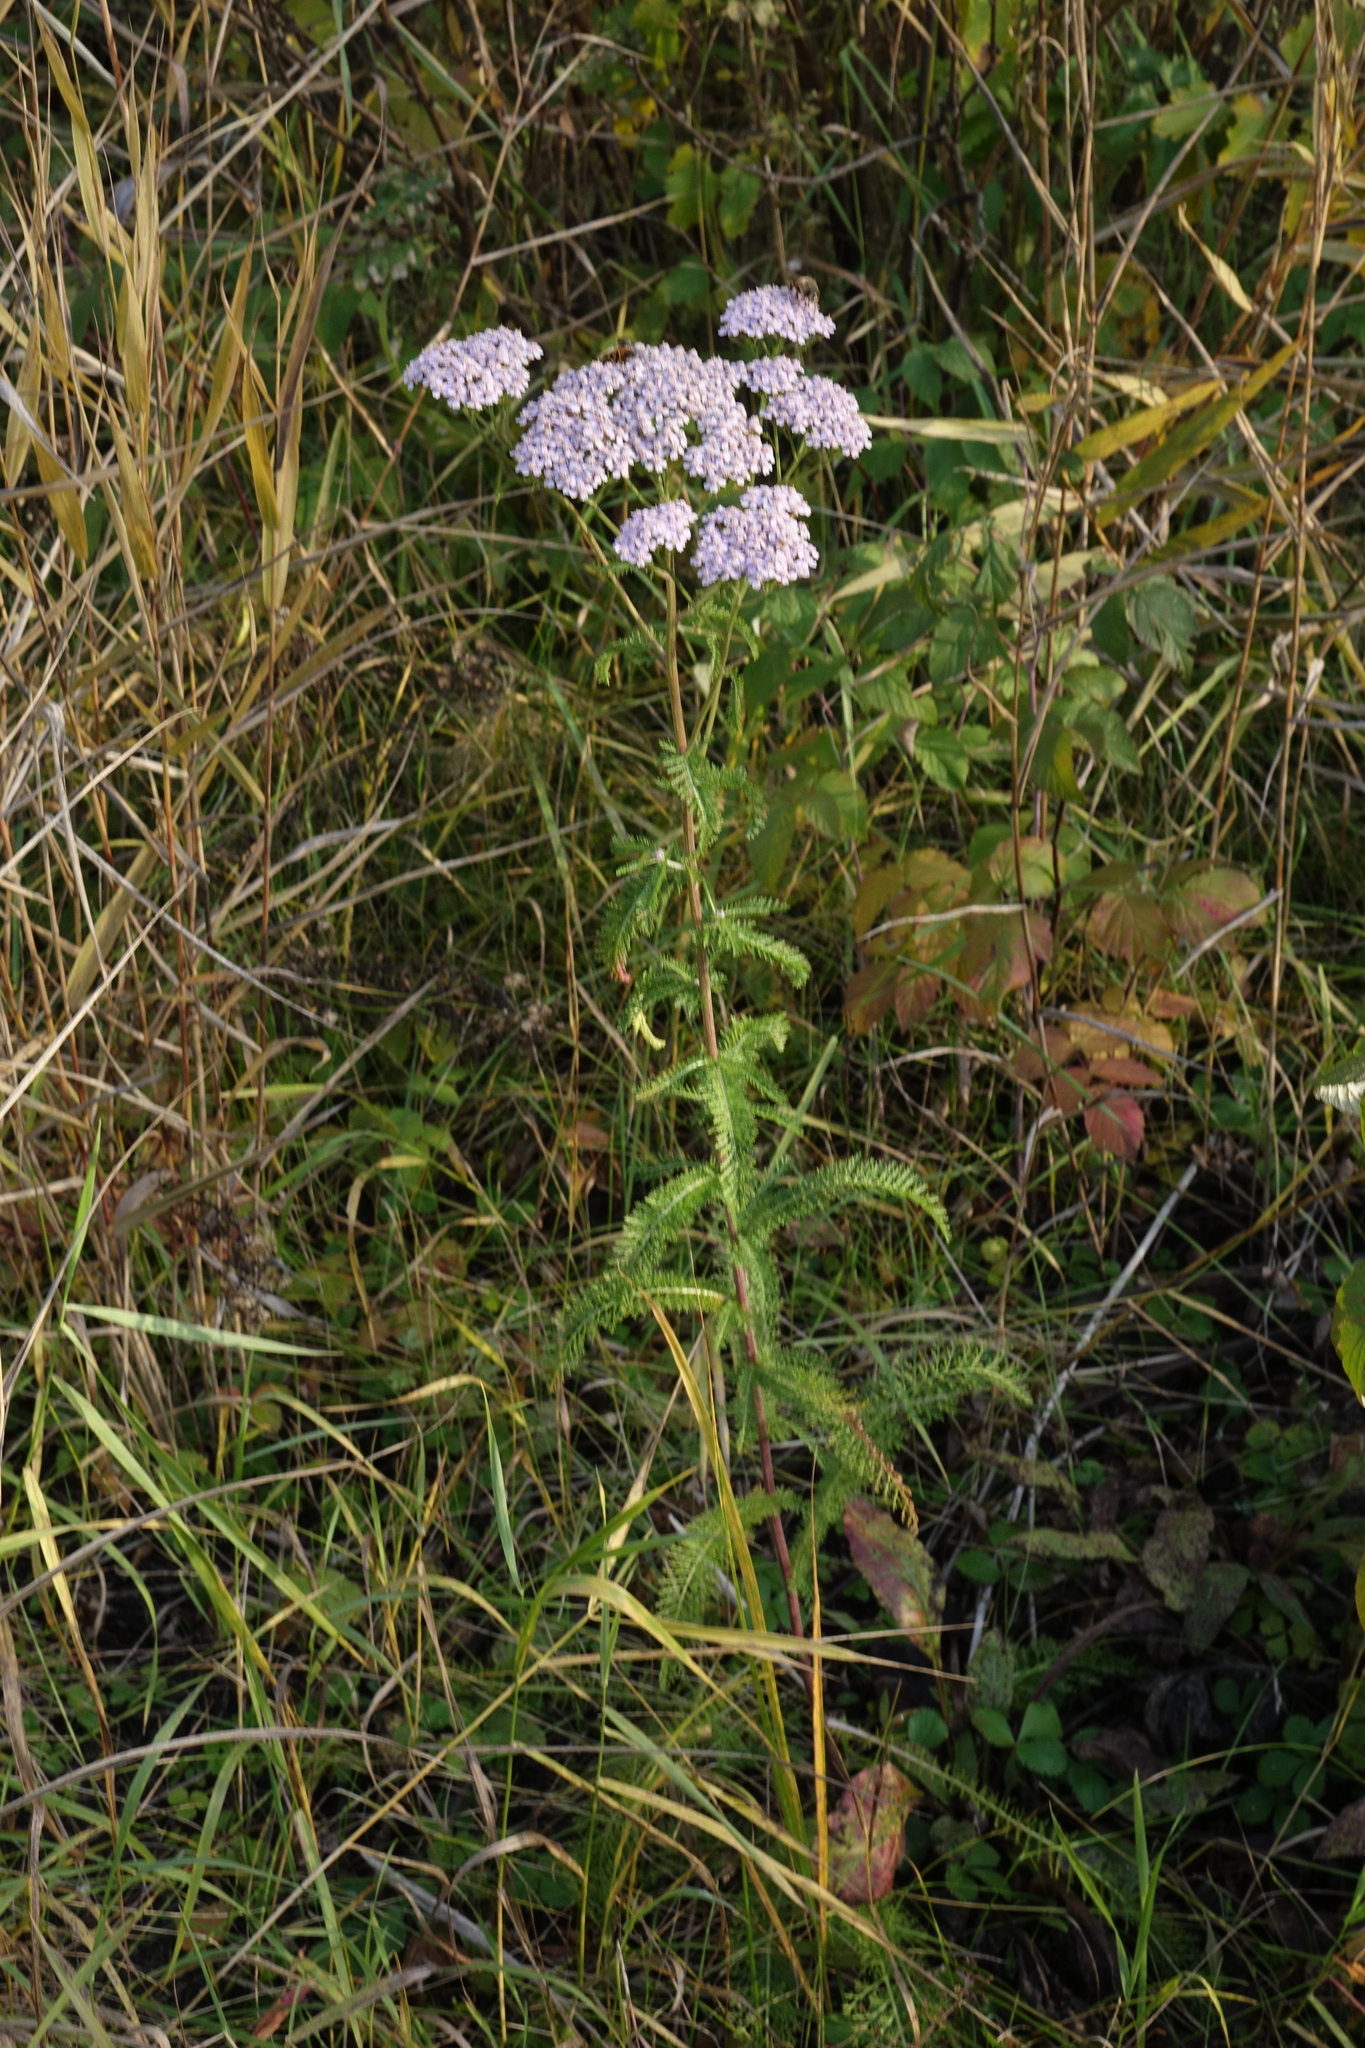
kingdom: Plantae
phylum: Tracheophyta
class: Magnoliopsida
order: Asterales
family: Asteraceae
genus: Achillea
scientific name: Achillea millefolium
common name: Yarrow
